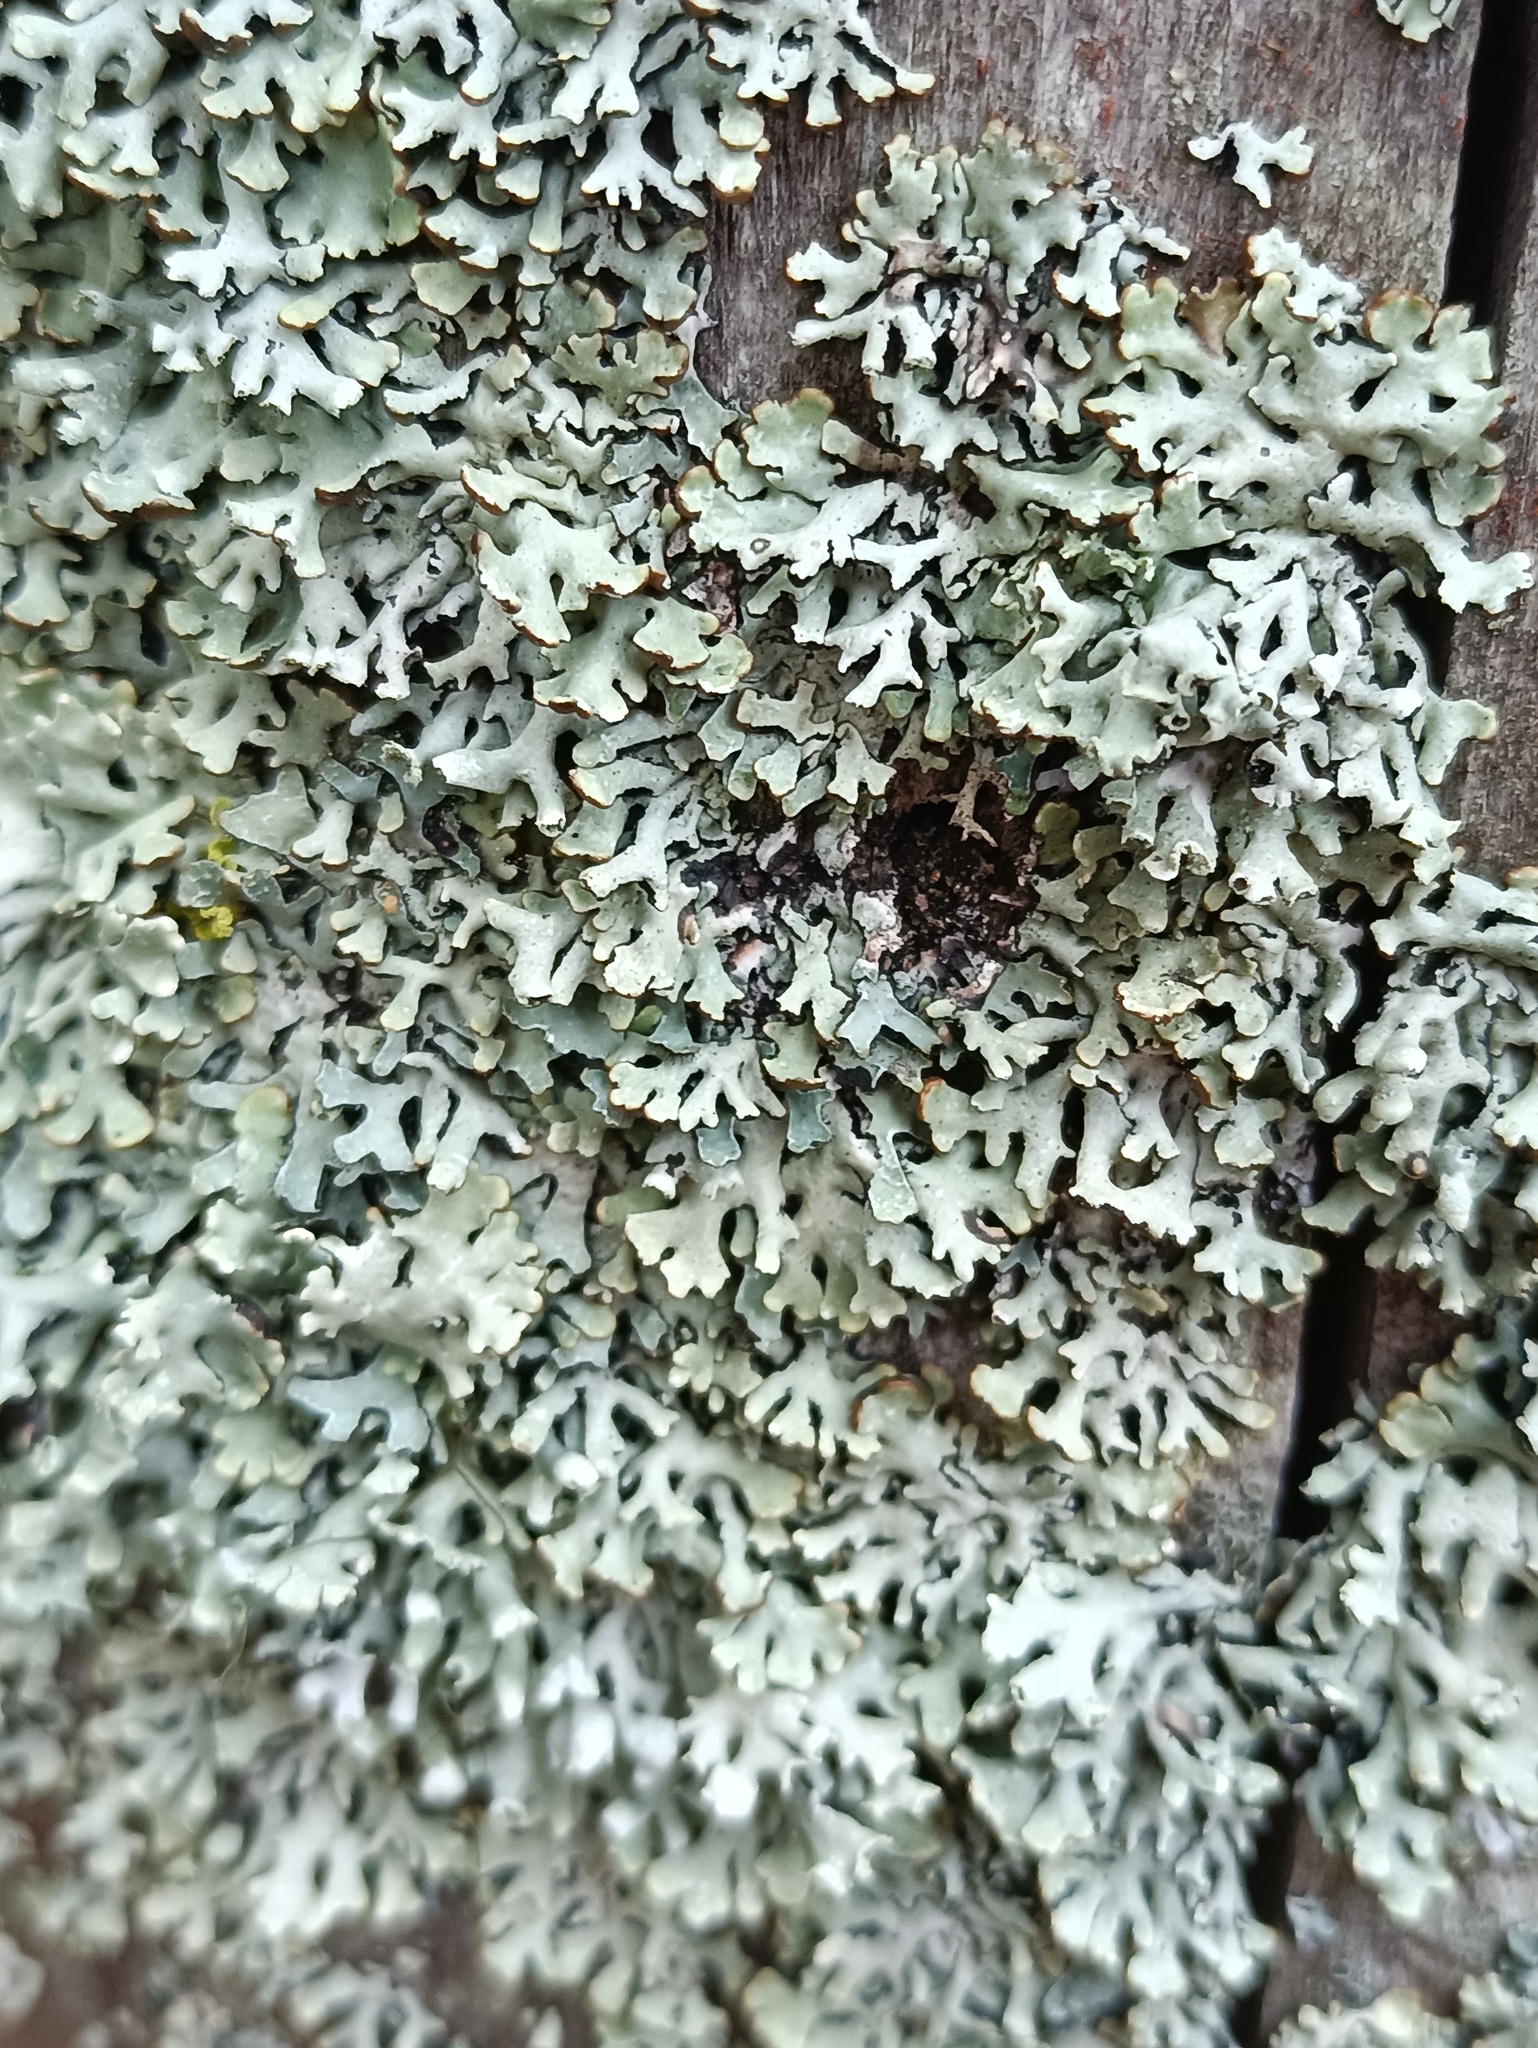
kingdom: Fungi
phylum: Ascomycota
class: Lecanoromycetes
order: Lecanorales
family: Parmeliaceae
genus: Hypogymnia
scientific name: Hypogymnia physodes
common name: Dark crottle
